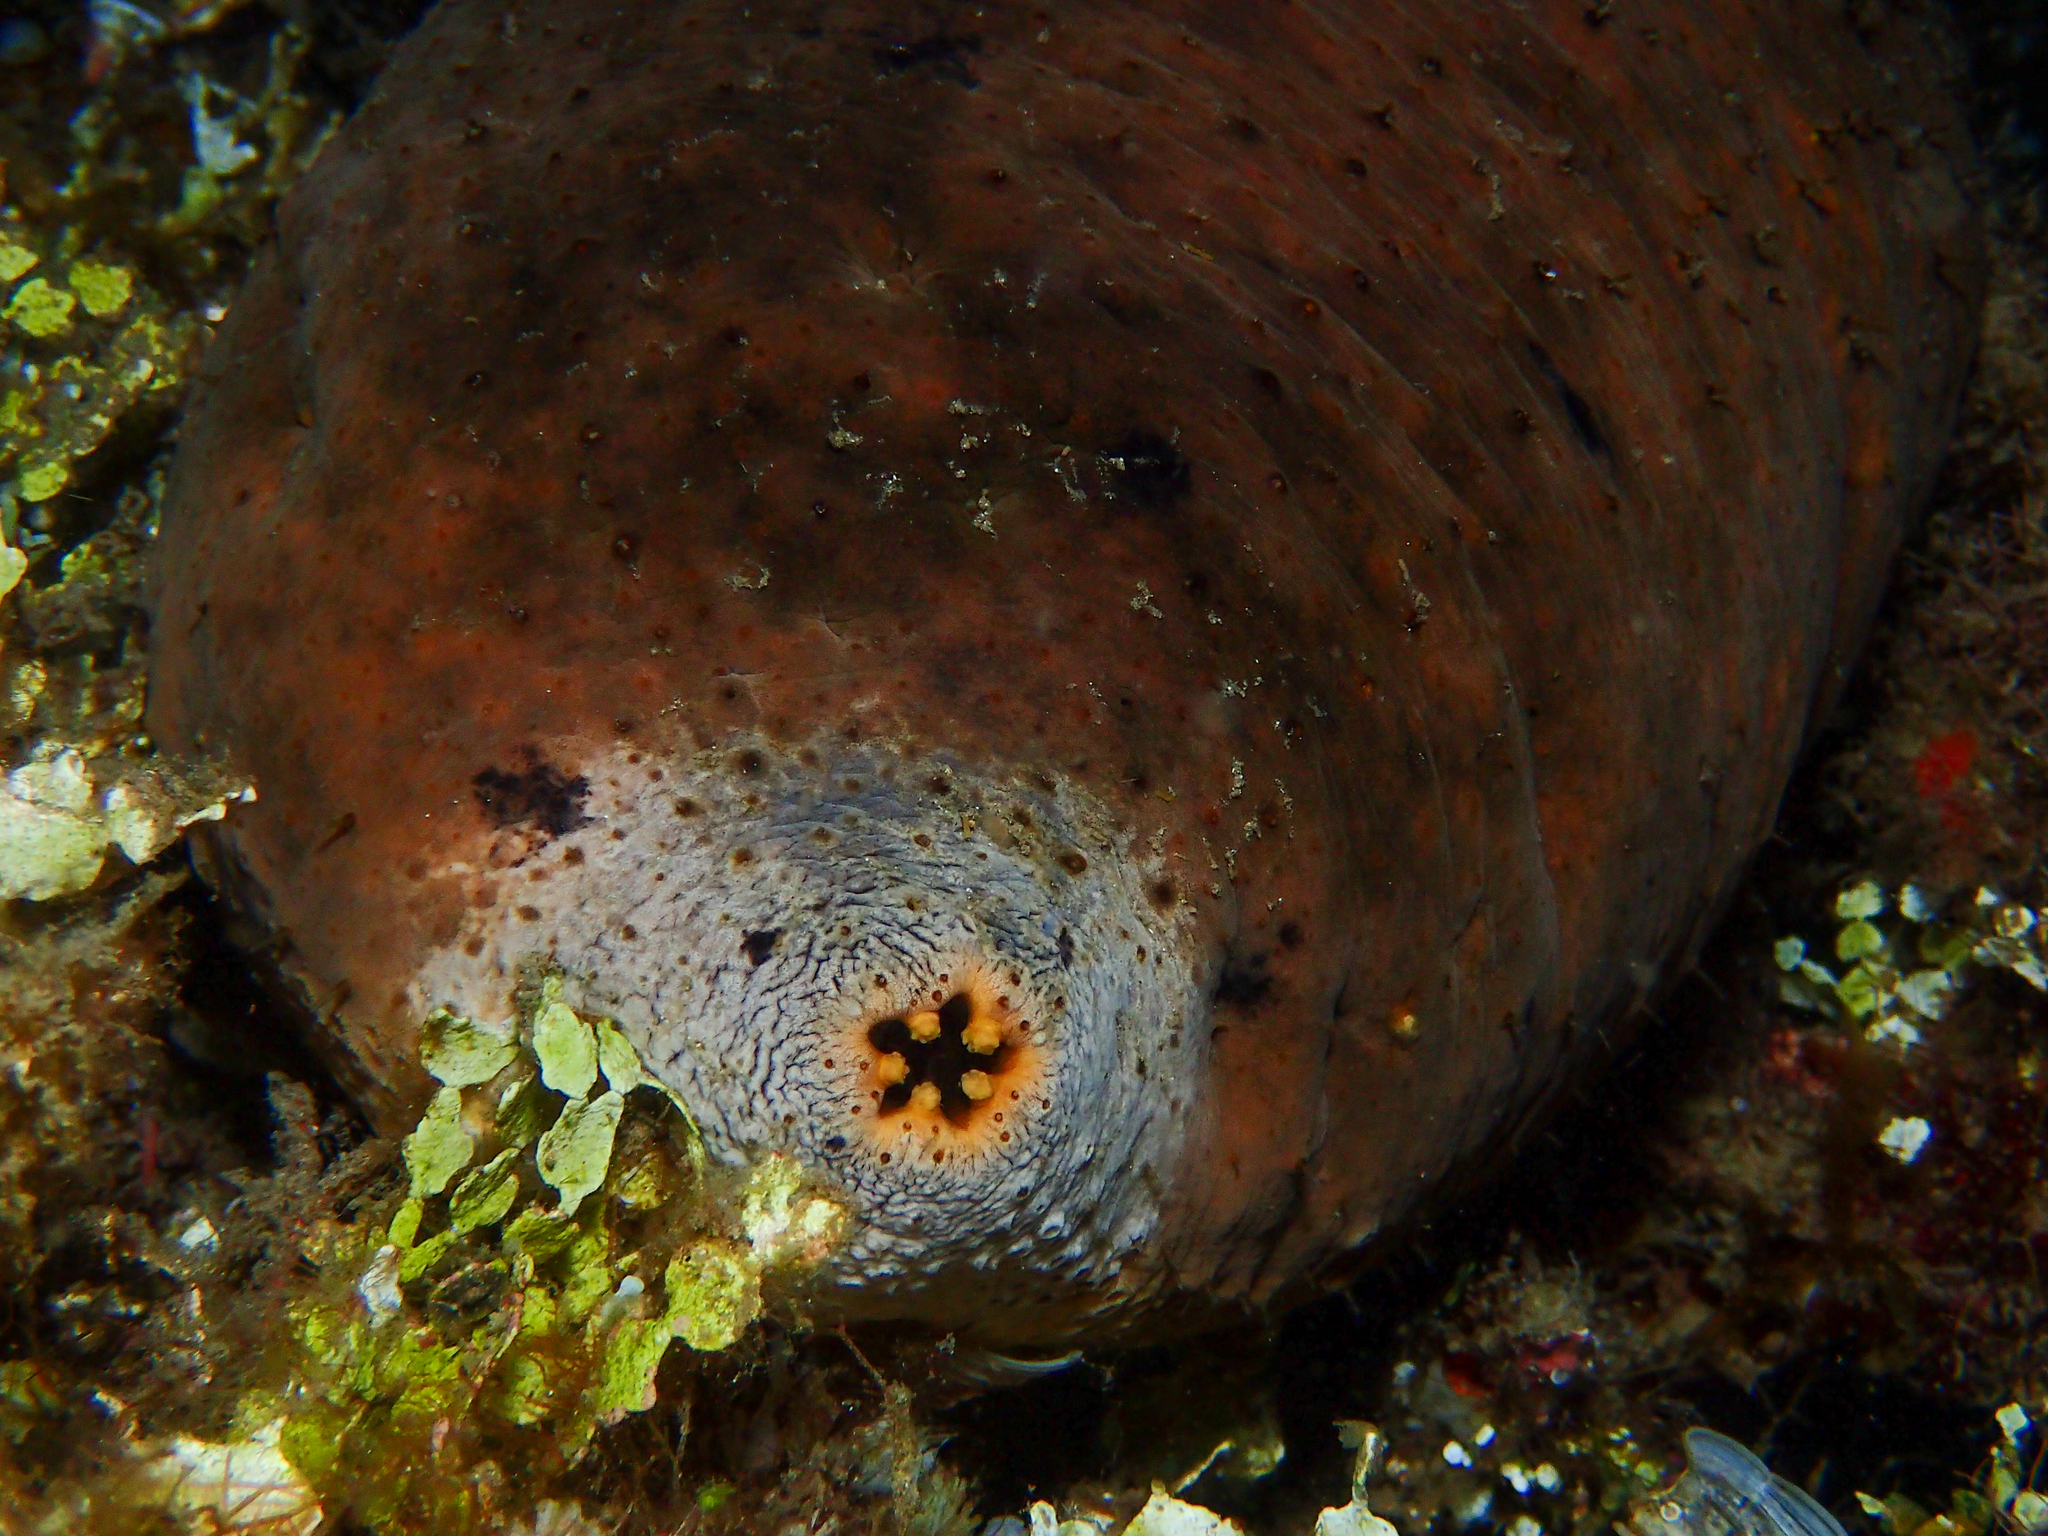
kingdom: Animalia
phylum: Echinodermata
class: Holothuroidea
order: Holothuriida
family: Holothuriidae
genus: Actinopyga
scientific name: Actinopyga lecanora
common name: Stonefish
